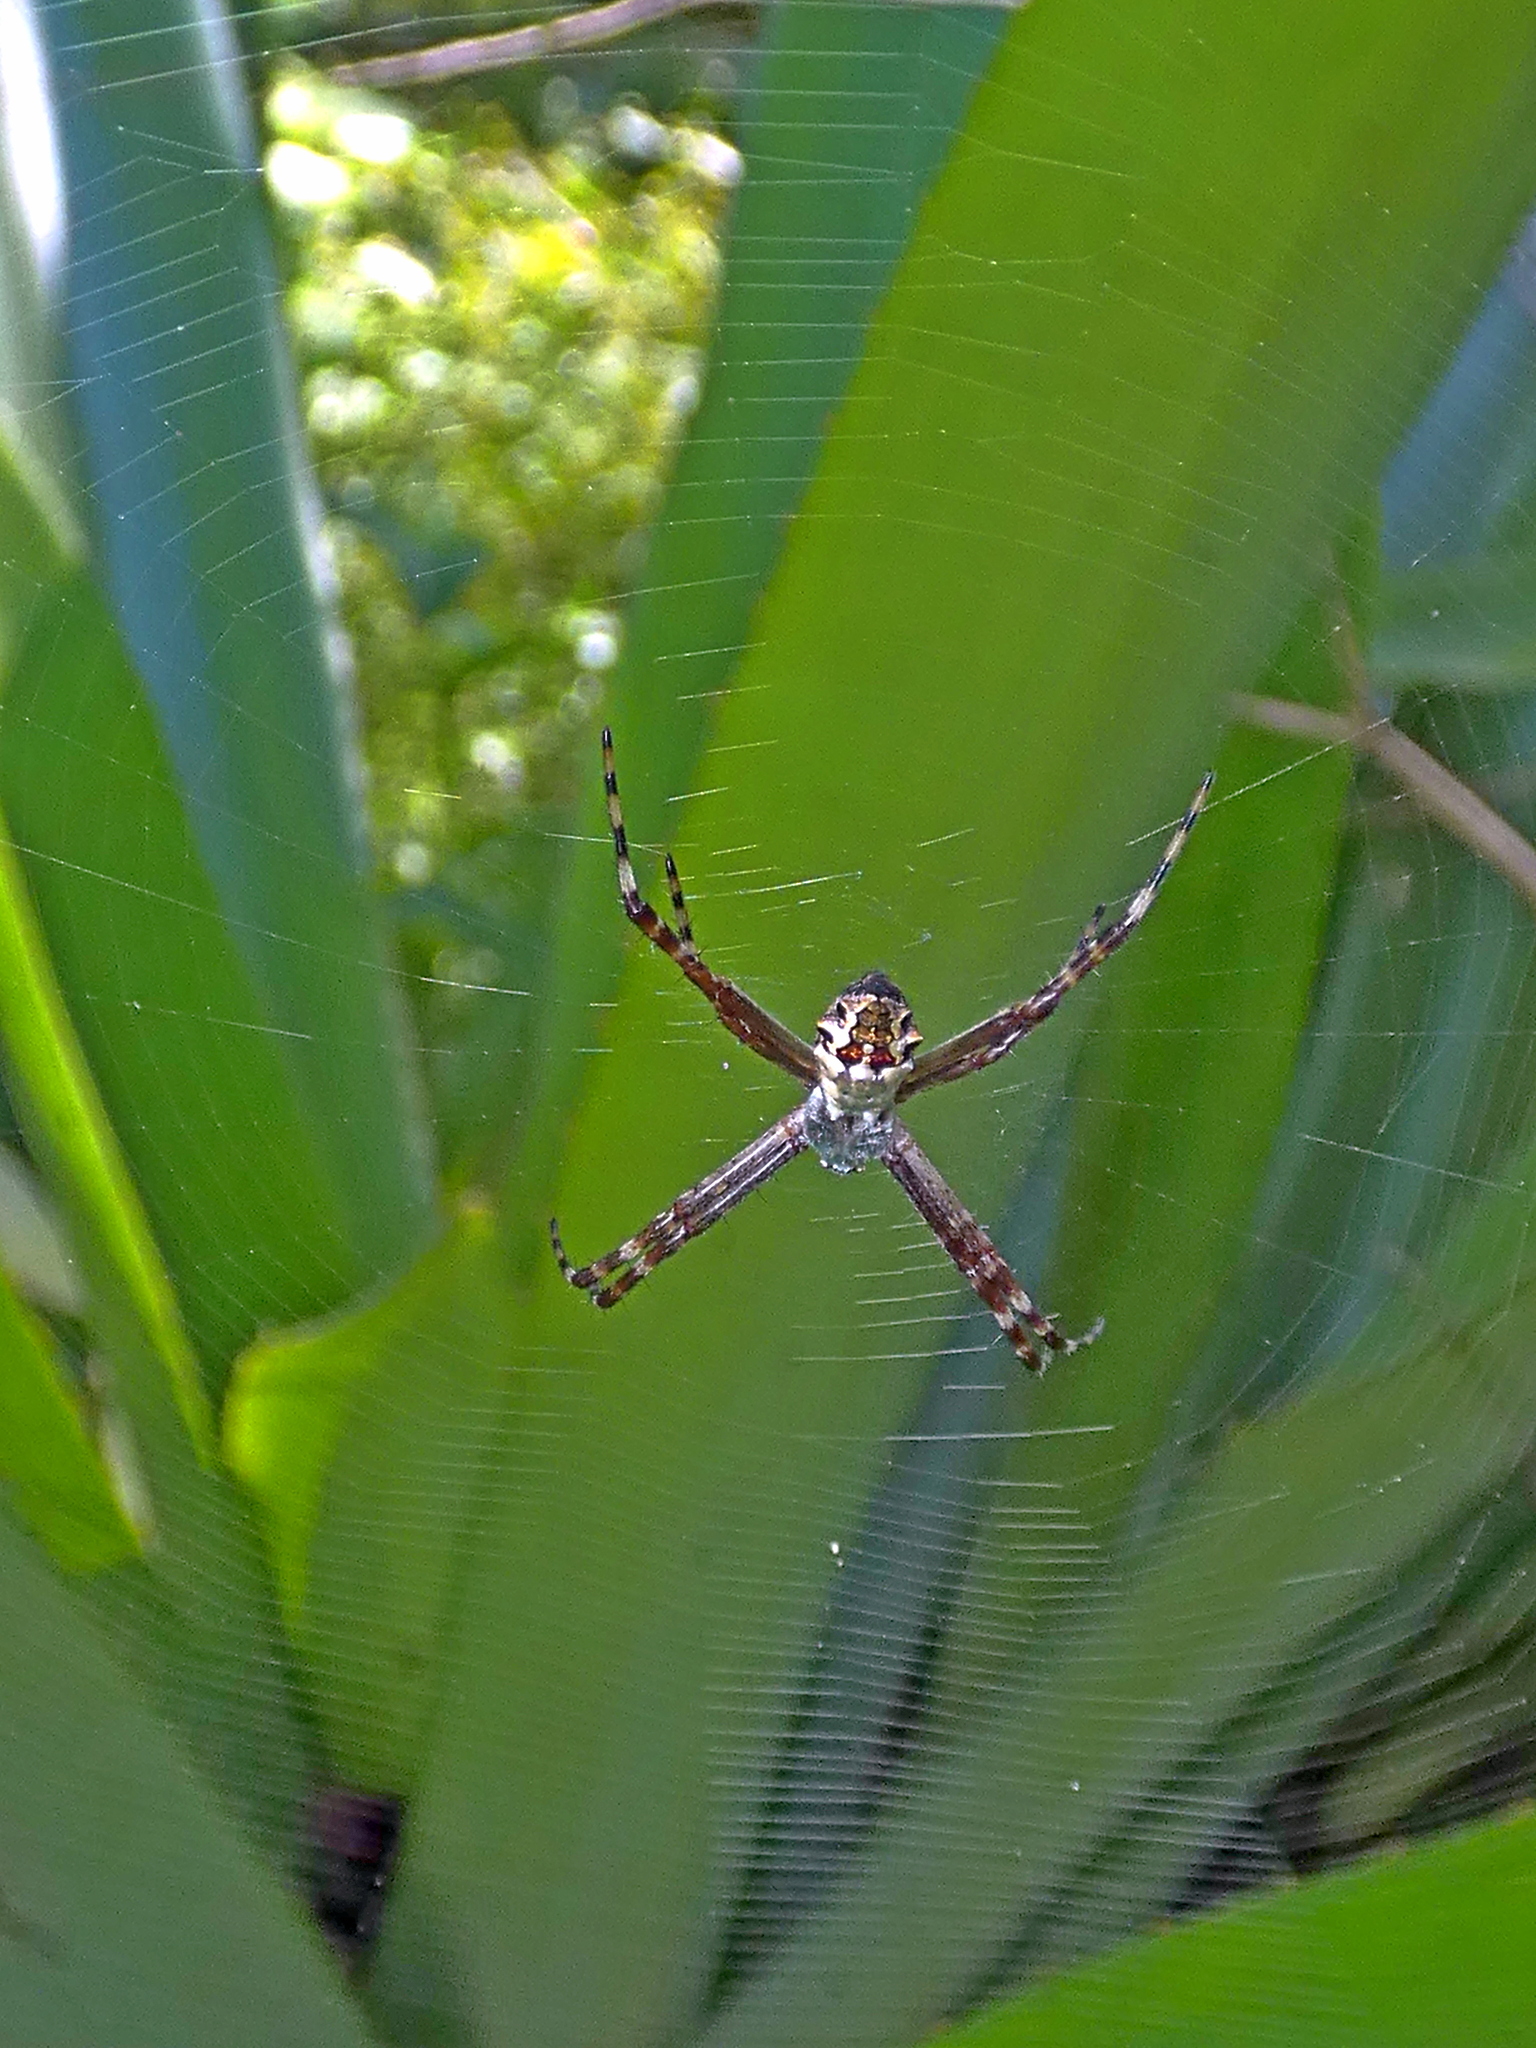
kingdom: Animalia
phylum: Arthropoda
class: Arachnida
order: Araneae
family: Araneidae
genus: Argiope
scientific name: Argiope argentata
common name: Orb weavers
